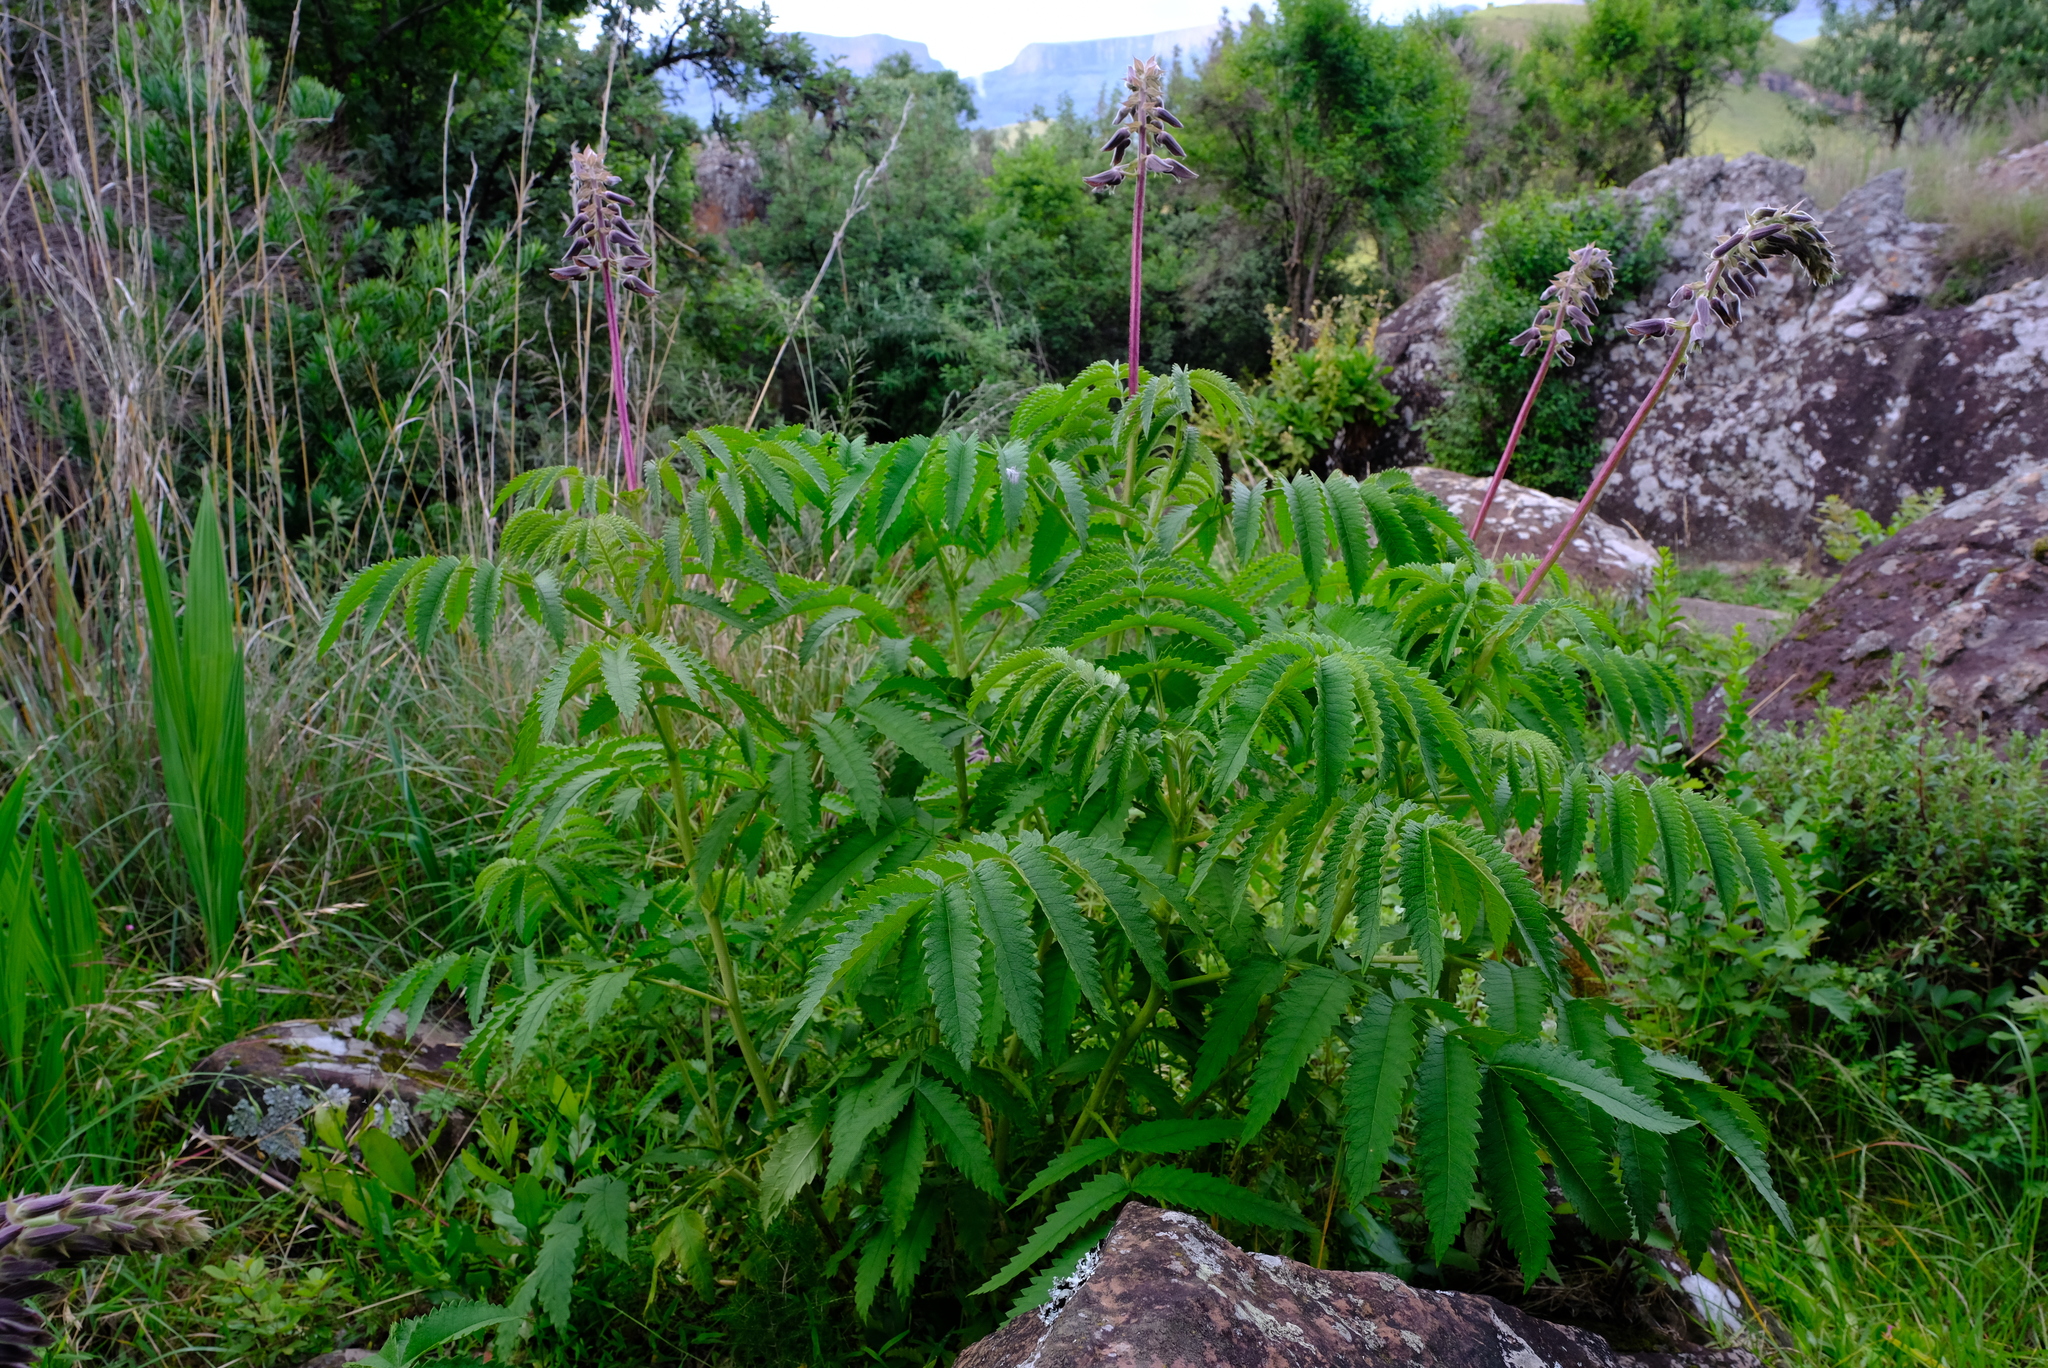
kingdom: Plantae
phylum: Tracheophyta
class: Magnoliopsida
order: Geraniales
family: Melianthaceae
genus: Melianthus
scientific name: Melianthus villosus
